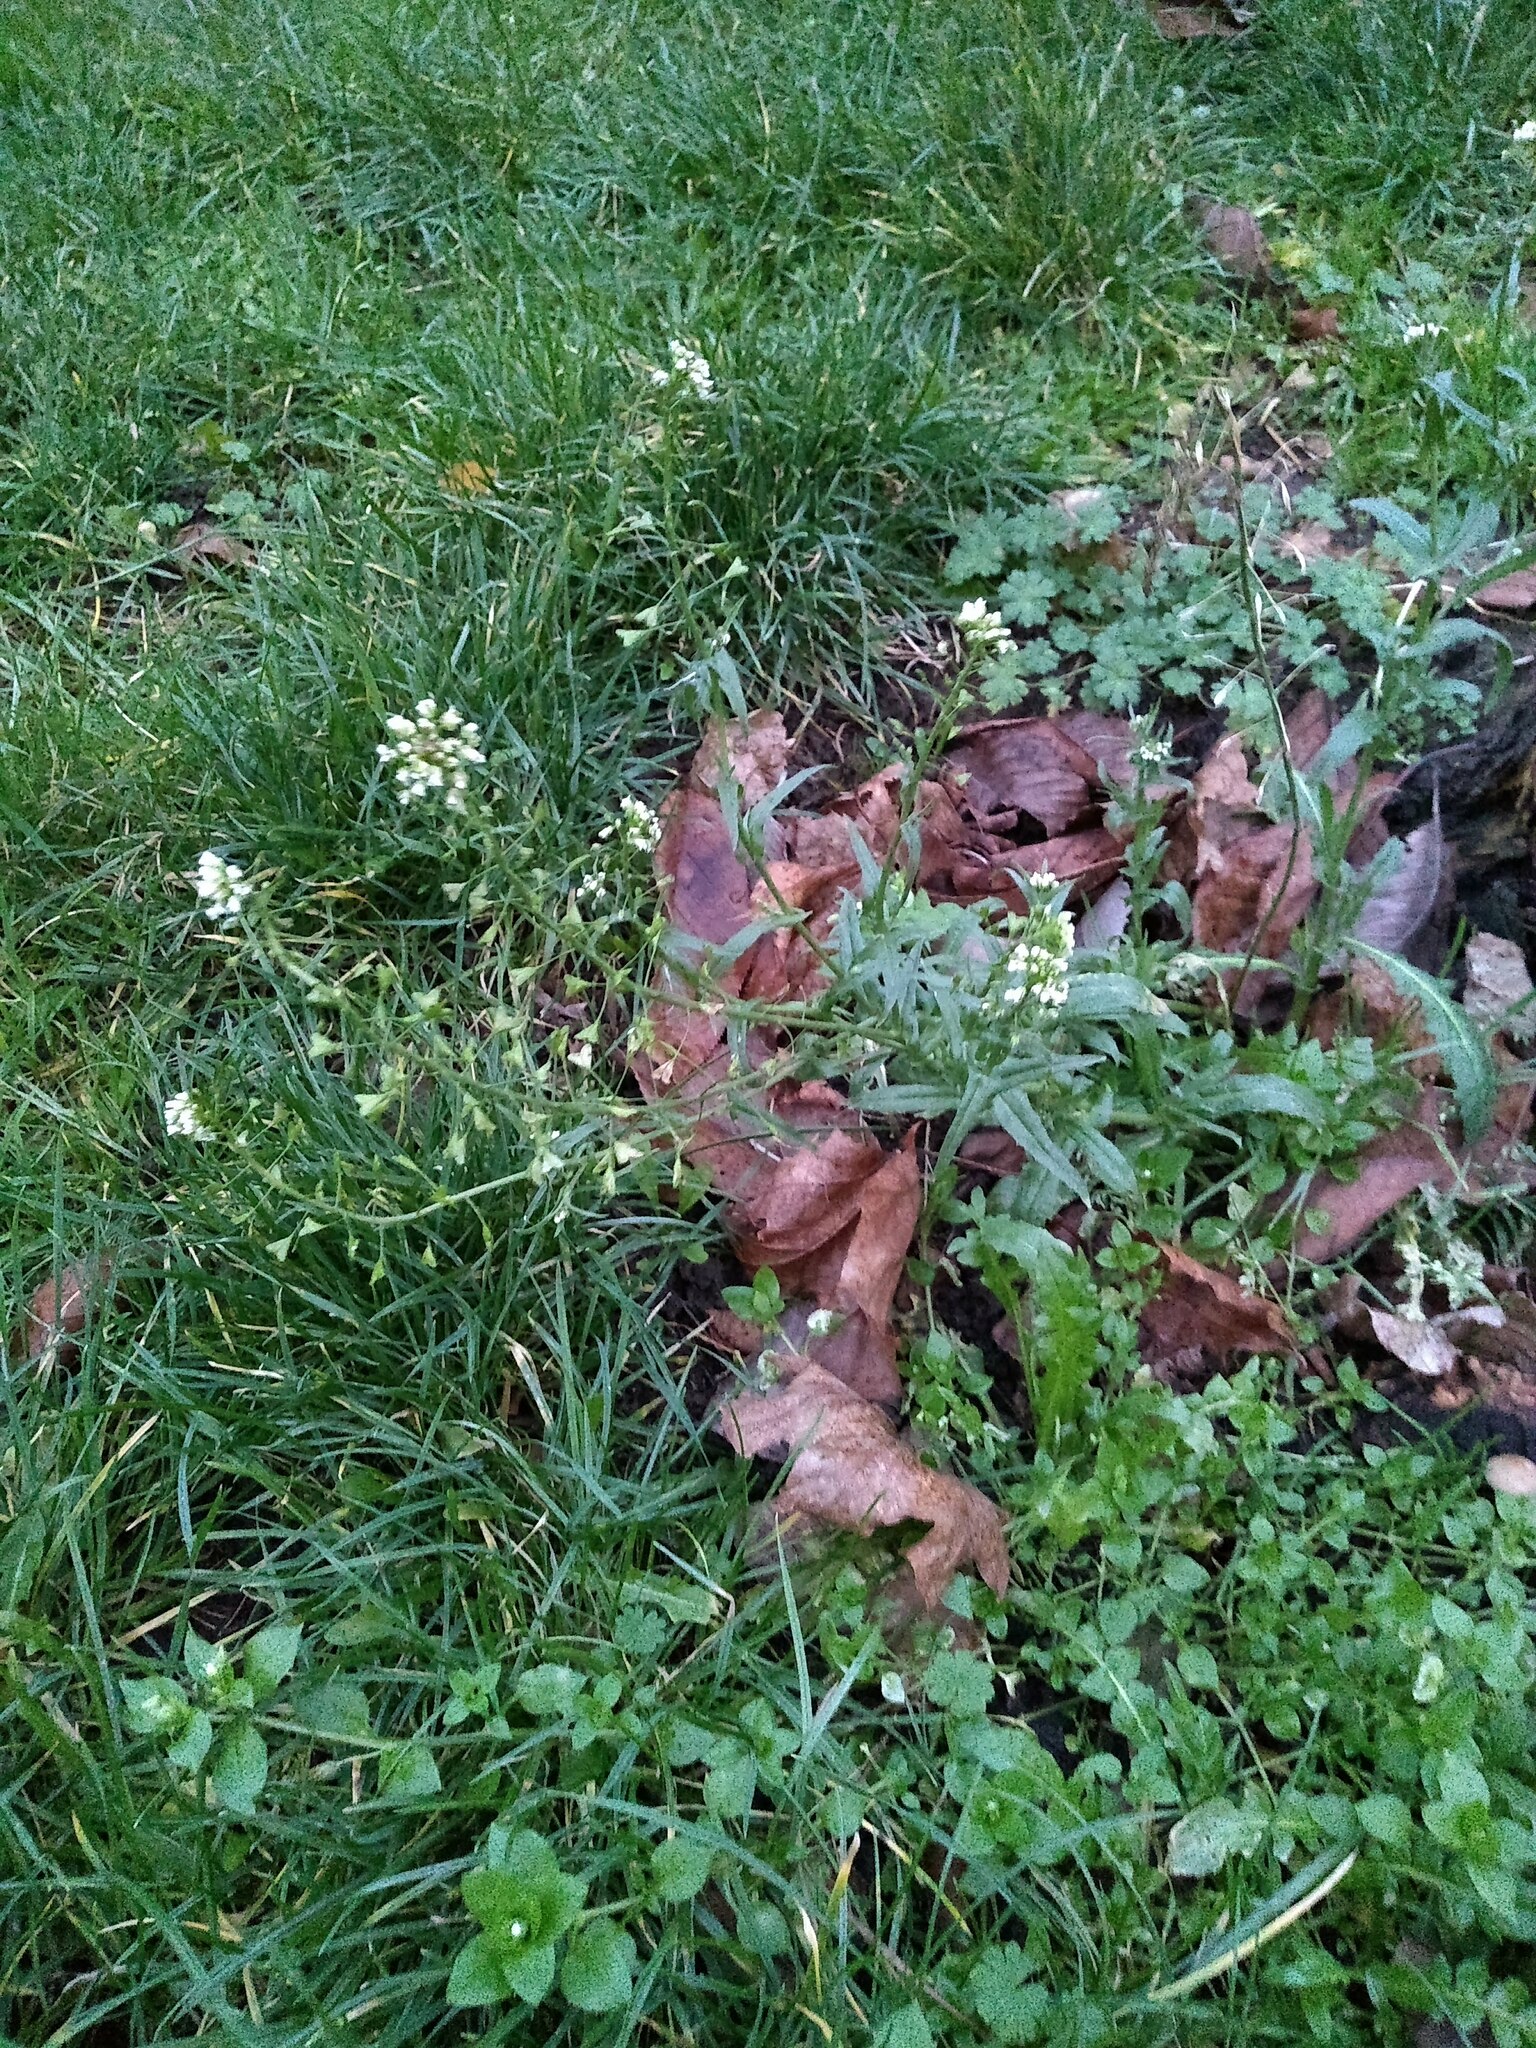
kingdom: Plantae
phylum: Tracheophyta
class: Magnoliopsida
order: Brassicales
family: Brassicaceae
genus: Capsella
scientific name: Capsella bursa-pastoris
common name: Shepherd's purse
